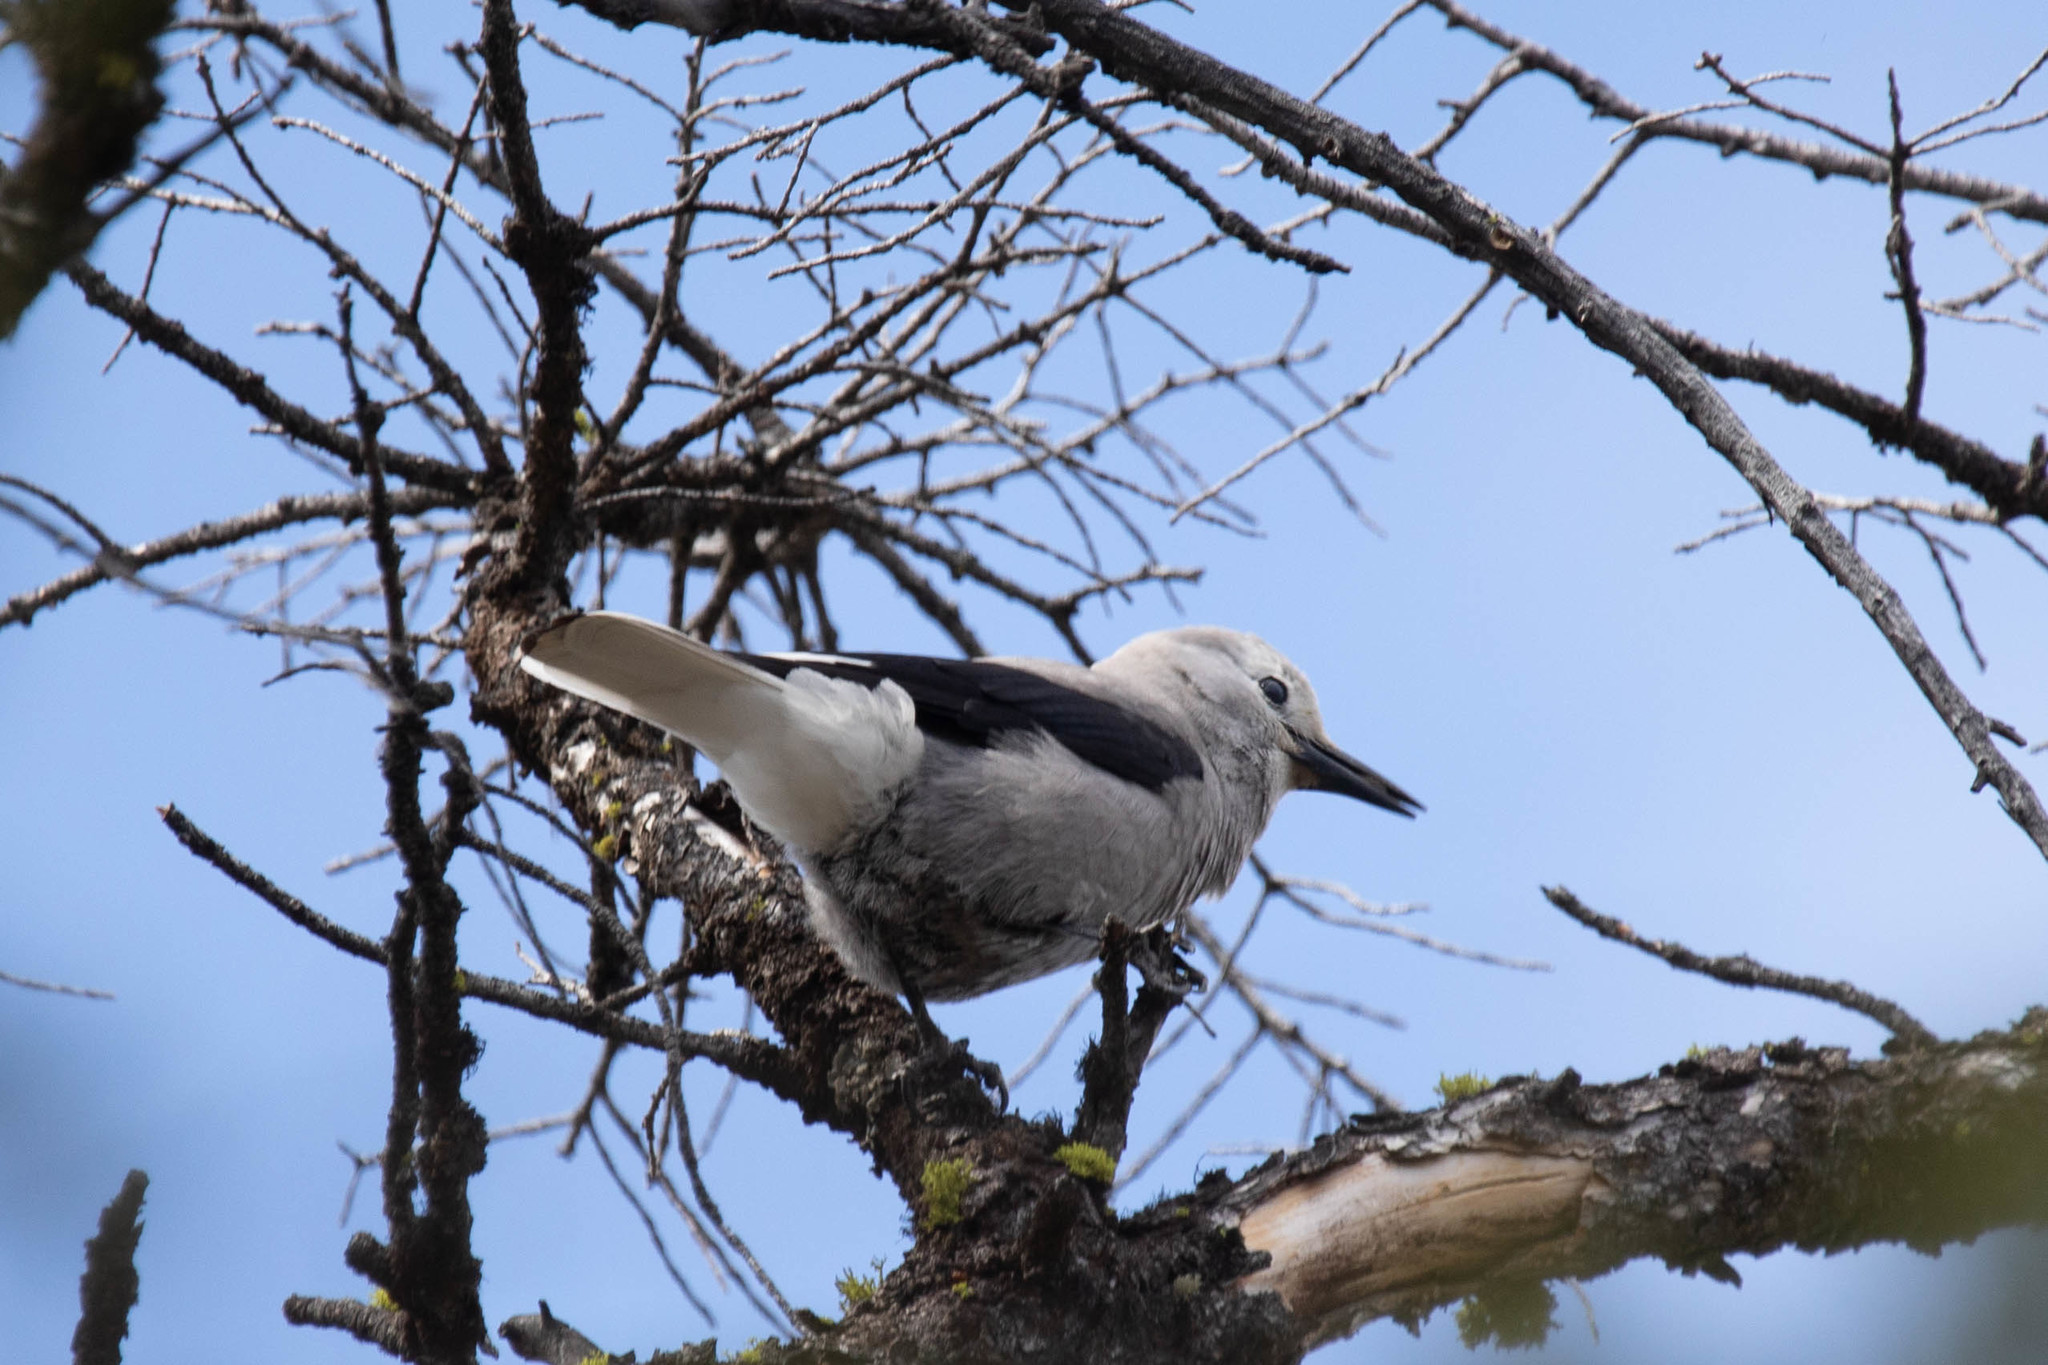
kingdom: Animalia
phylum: Chordata
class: Aves
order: Passeriformes
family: Corvidae
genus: Nucifraga
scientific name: Nucifraga columbiana
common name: Clark's nutcracker
